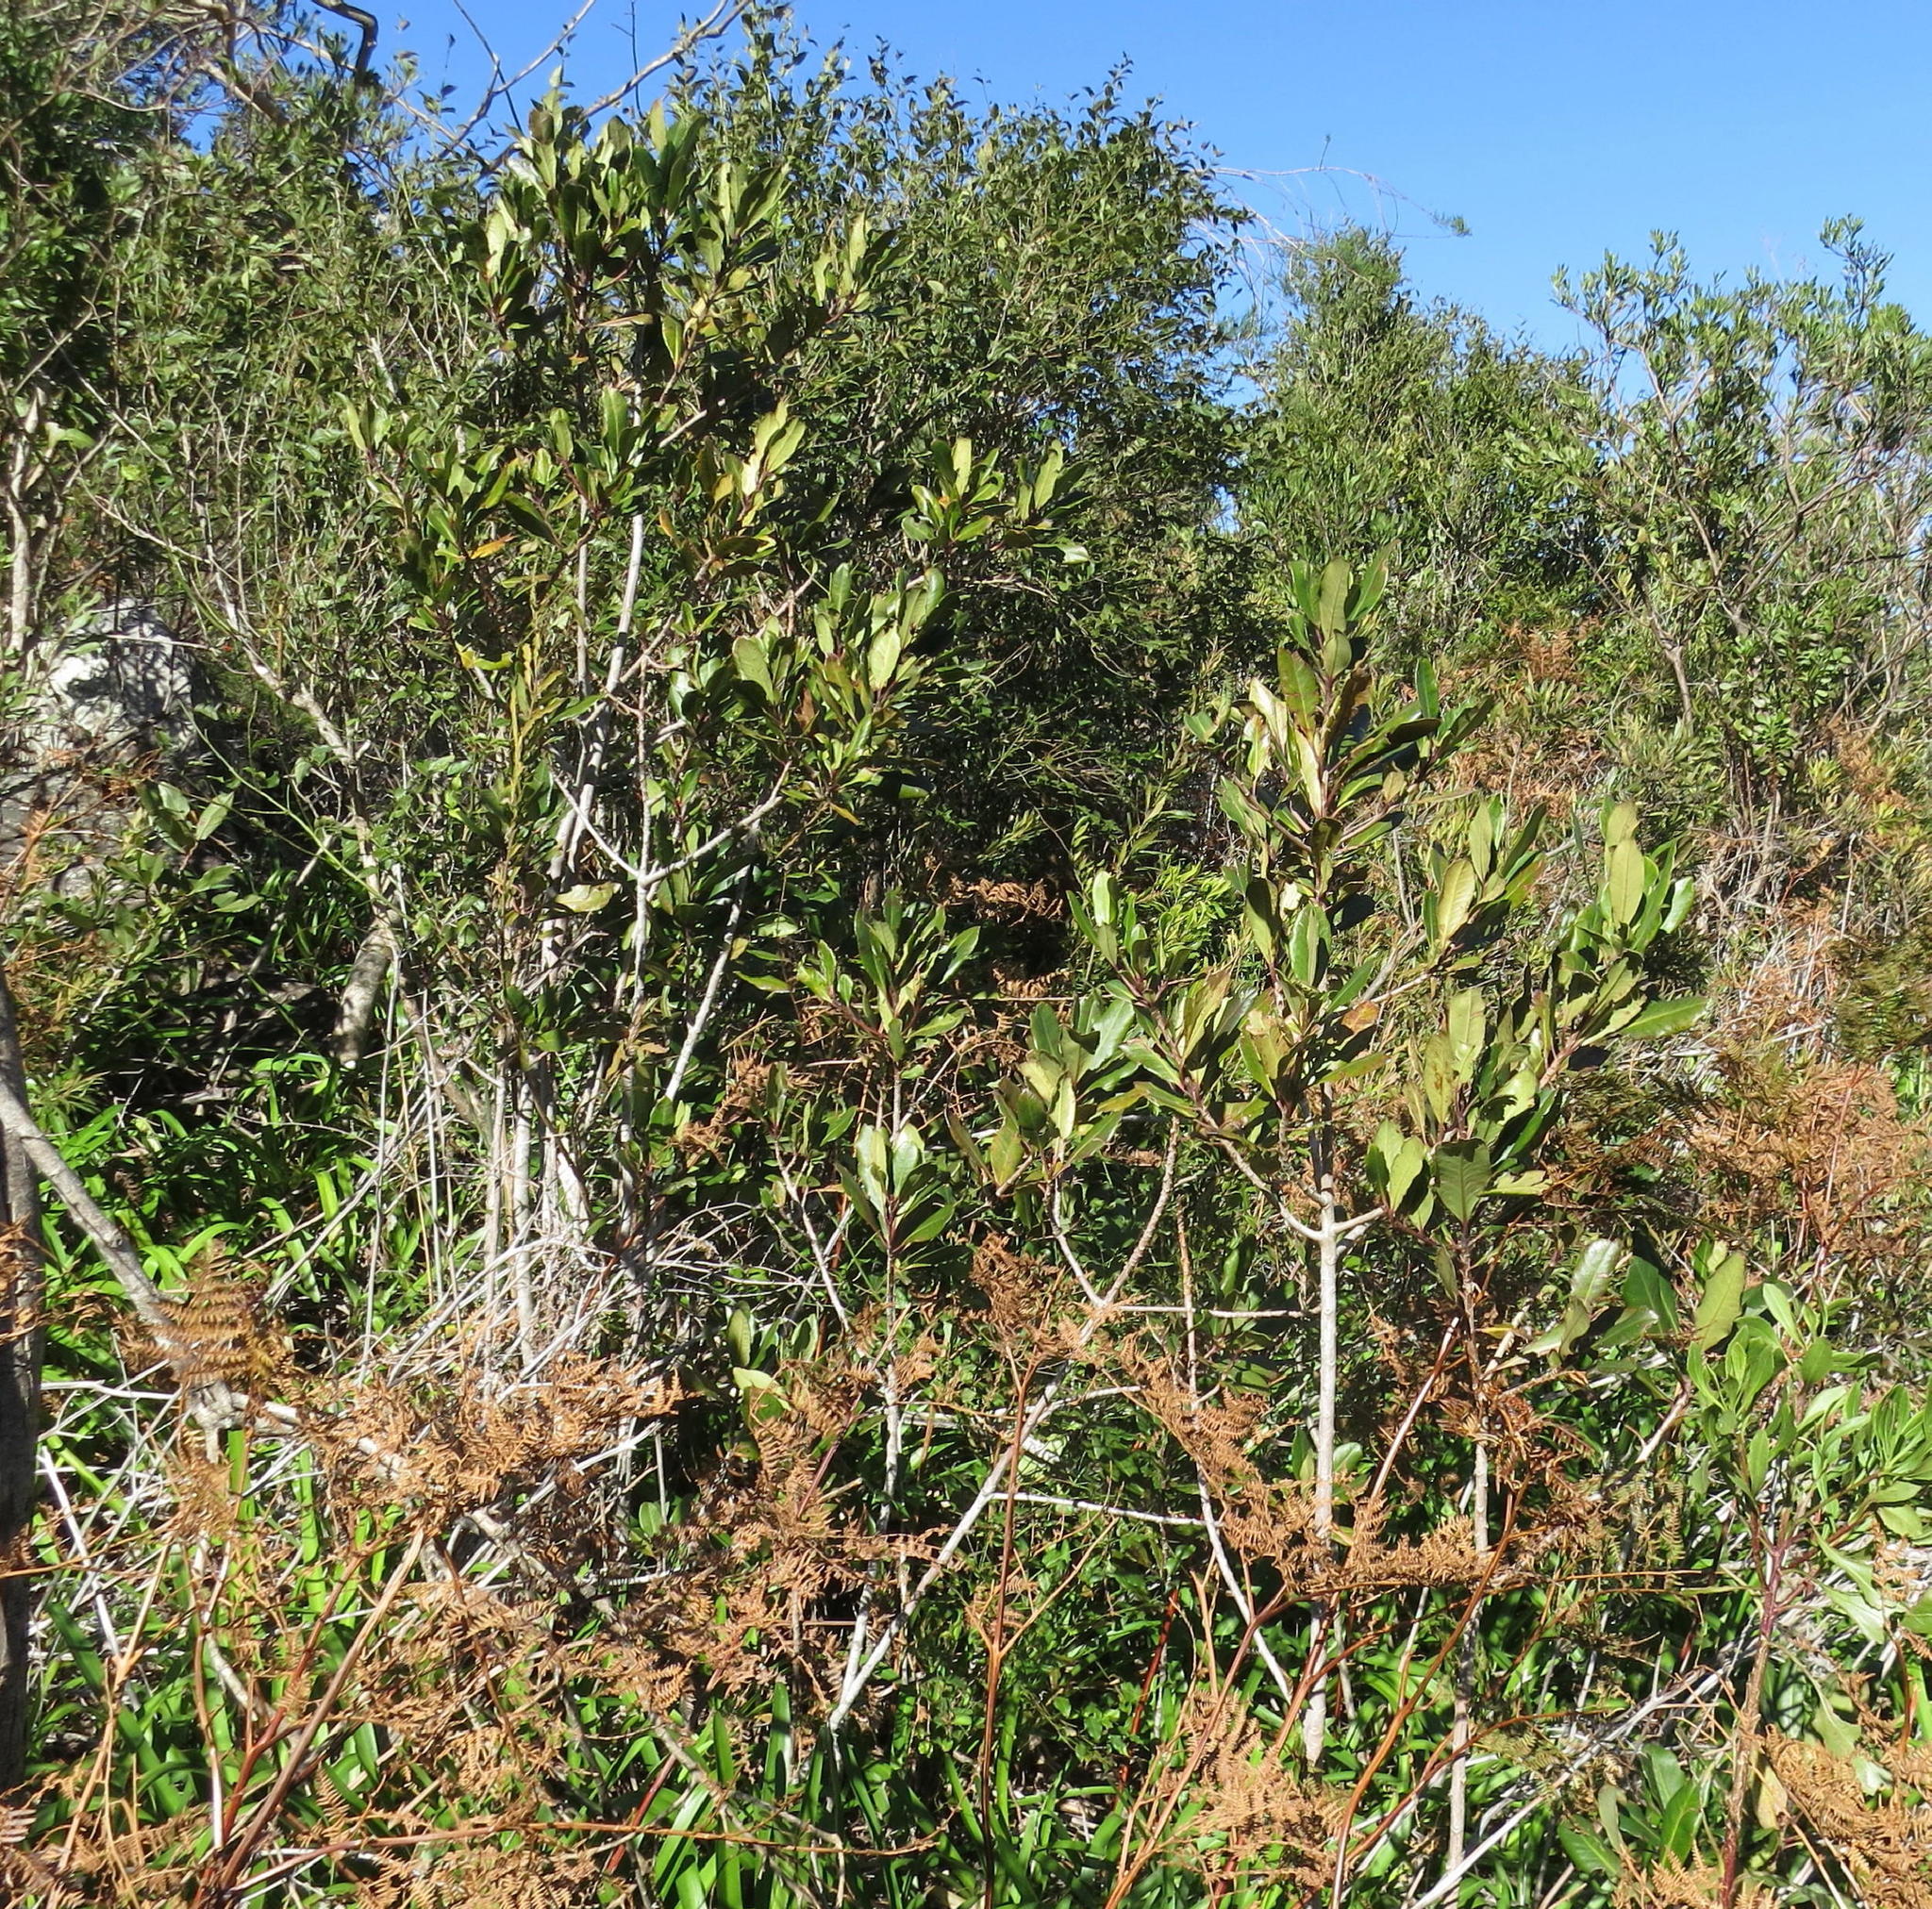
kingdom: Plantae
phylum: Tracheophyta
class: Magnoliopsida
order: Ericales
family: Primulaceae
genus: Myrsine
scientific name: Myrsine melanophloeos
